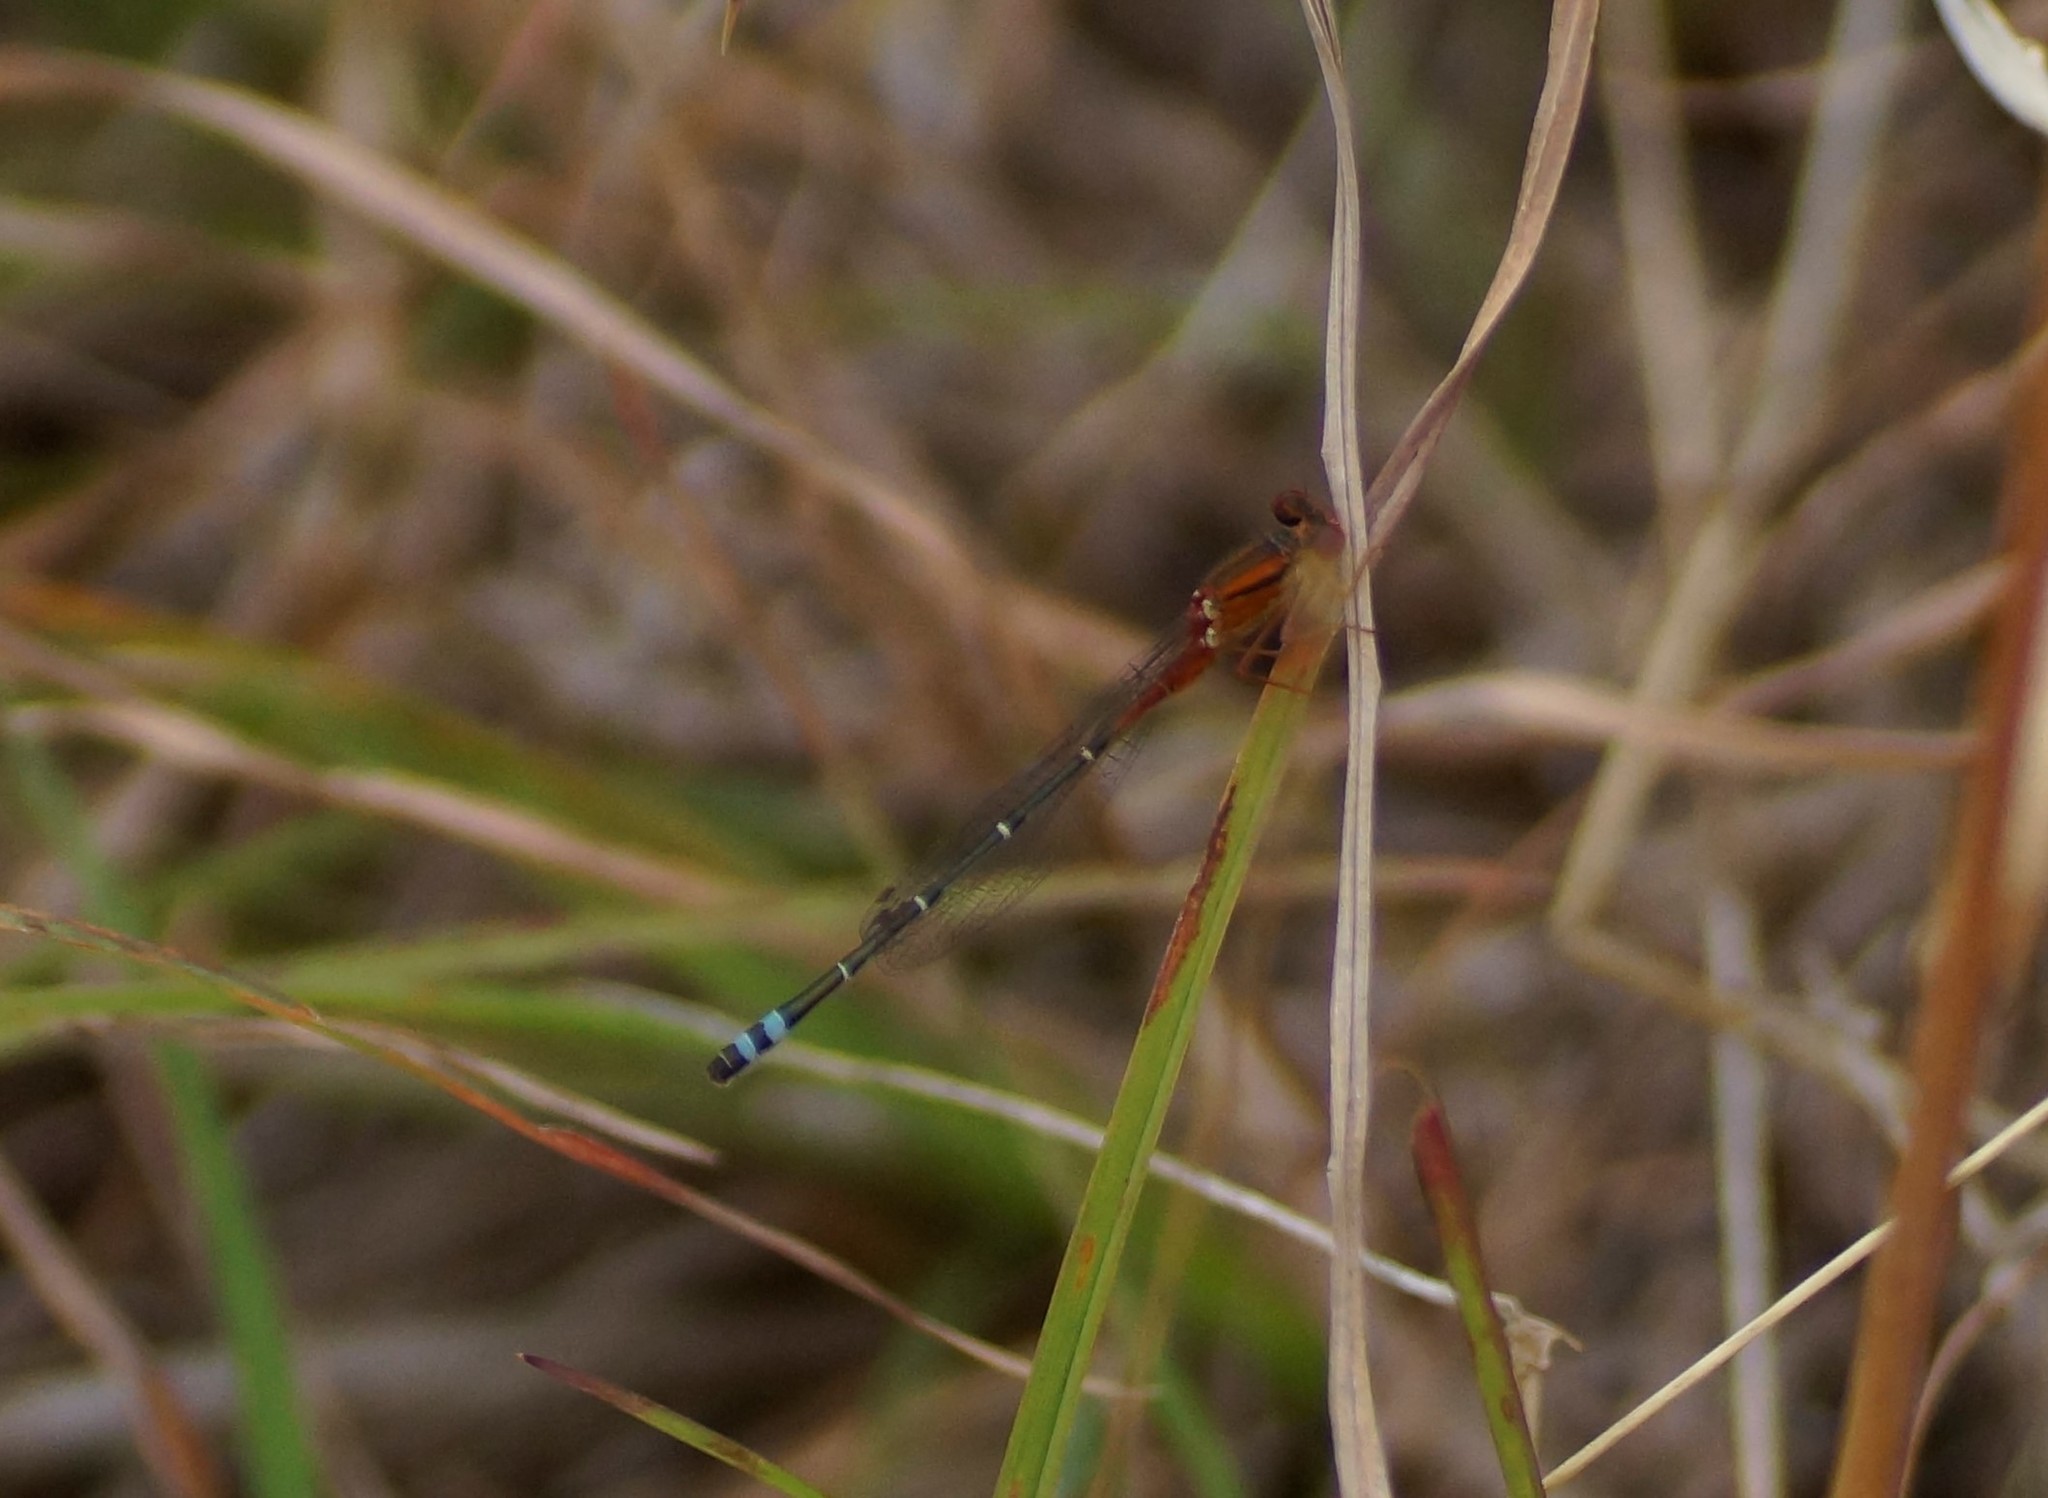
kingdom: Animalia
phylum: Arthropoda
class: Insecta
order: Odonata
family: Coenagrionidae
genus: Xanthagrion
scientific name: Xanthagrion erythroneurum
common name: Red and blue damsel
